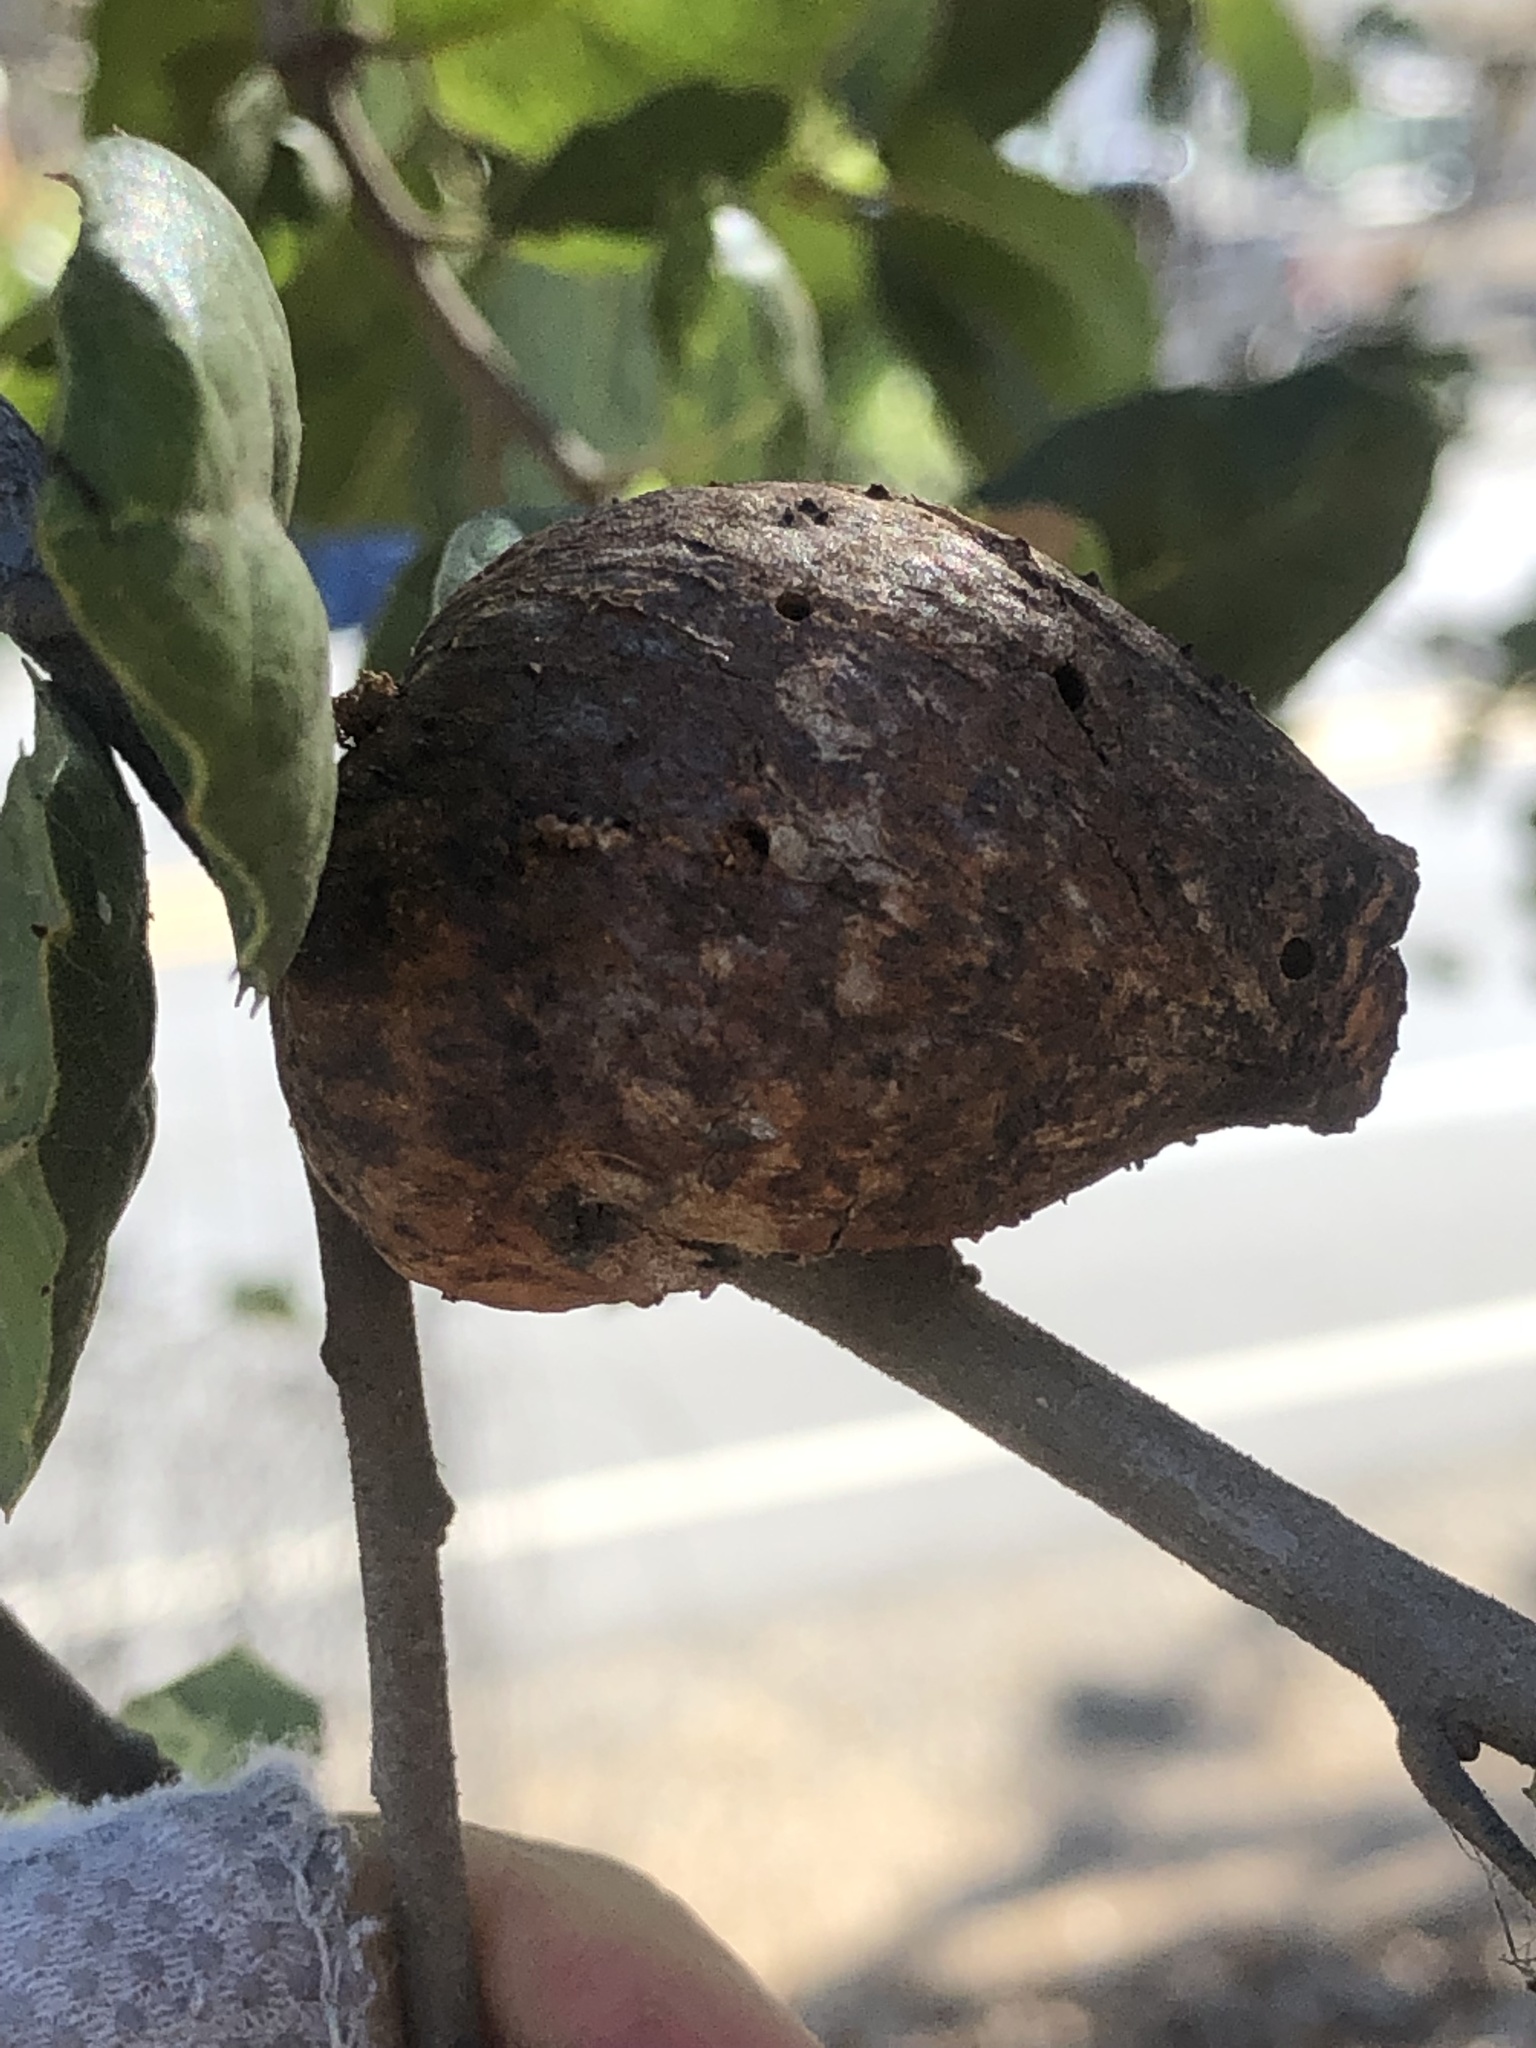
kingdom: Animalia
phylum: Arthropoda
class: Insecta
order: Hymenoptera
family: Cynipidae
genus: Amphibolips
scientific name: Amphibolips quercuspomiformis
